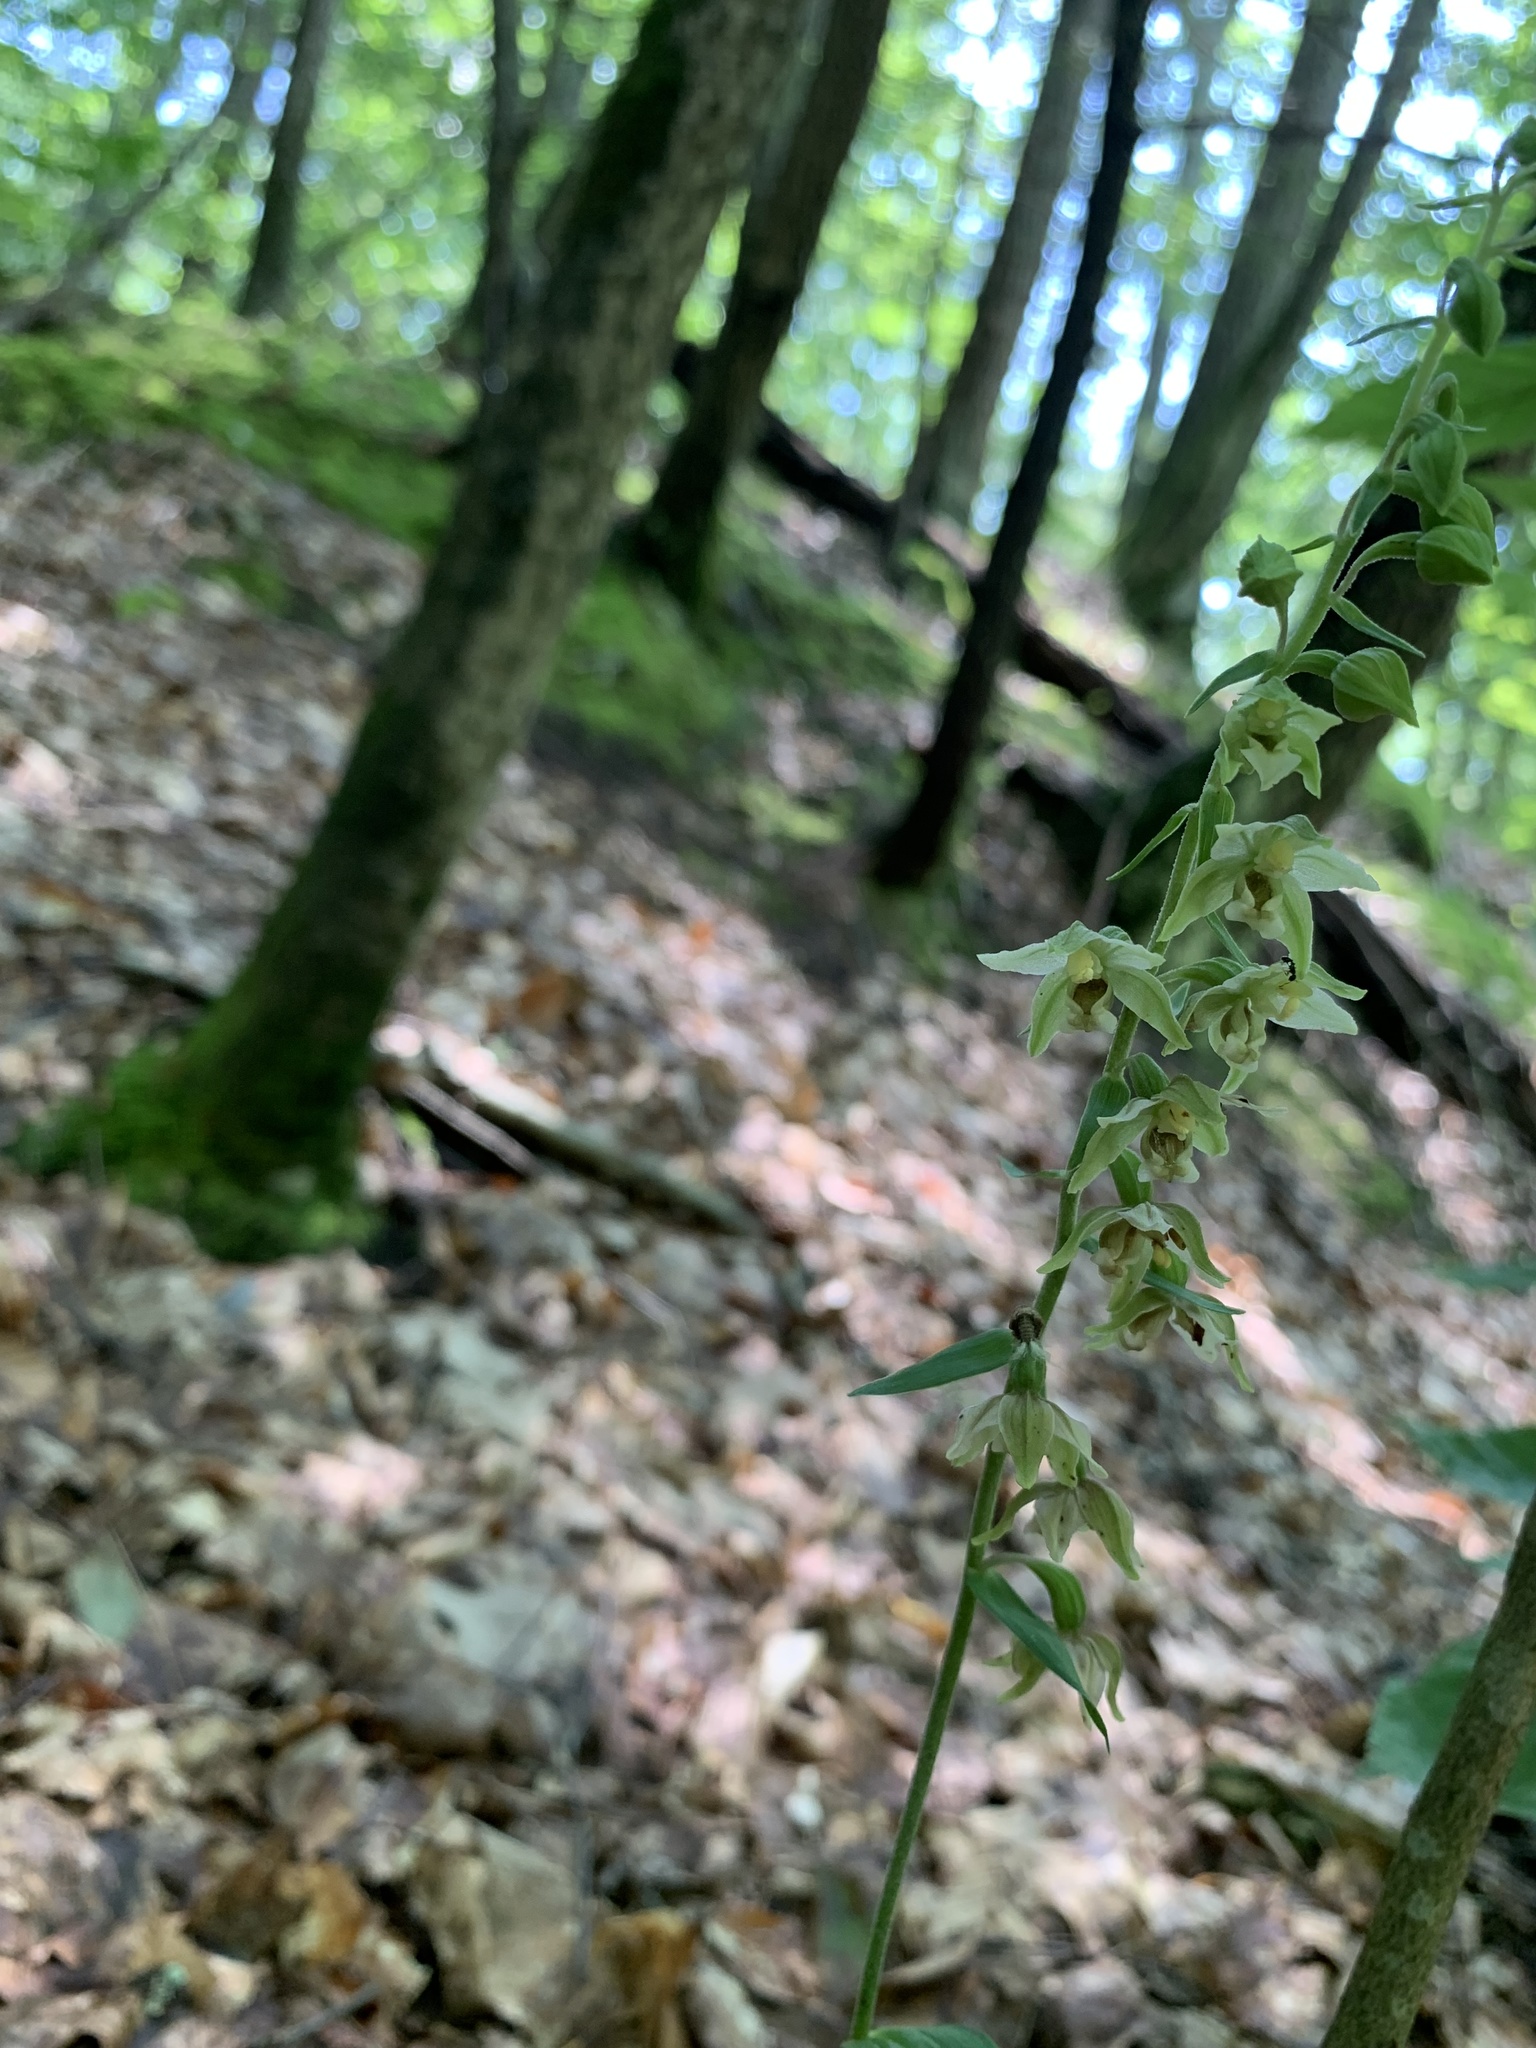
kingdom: Plantae
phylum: Tracheophyta
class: Liliopsida
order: Asparagales
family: Orchidaceae
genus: Epipactis
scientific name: Epipactis helleborine
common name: Broad-leaved helleborine
